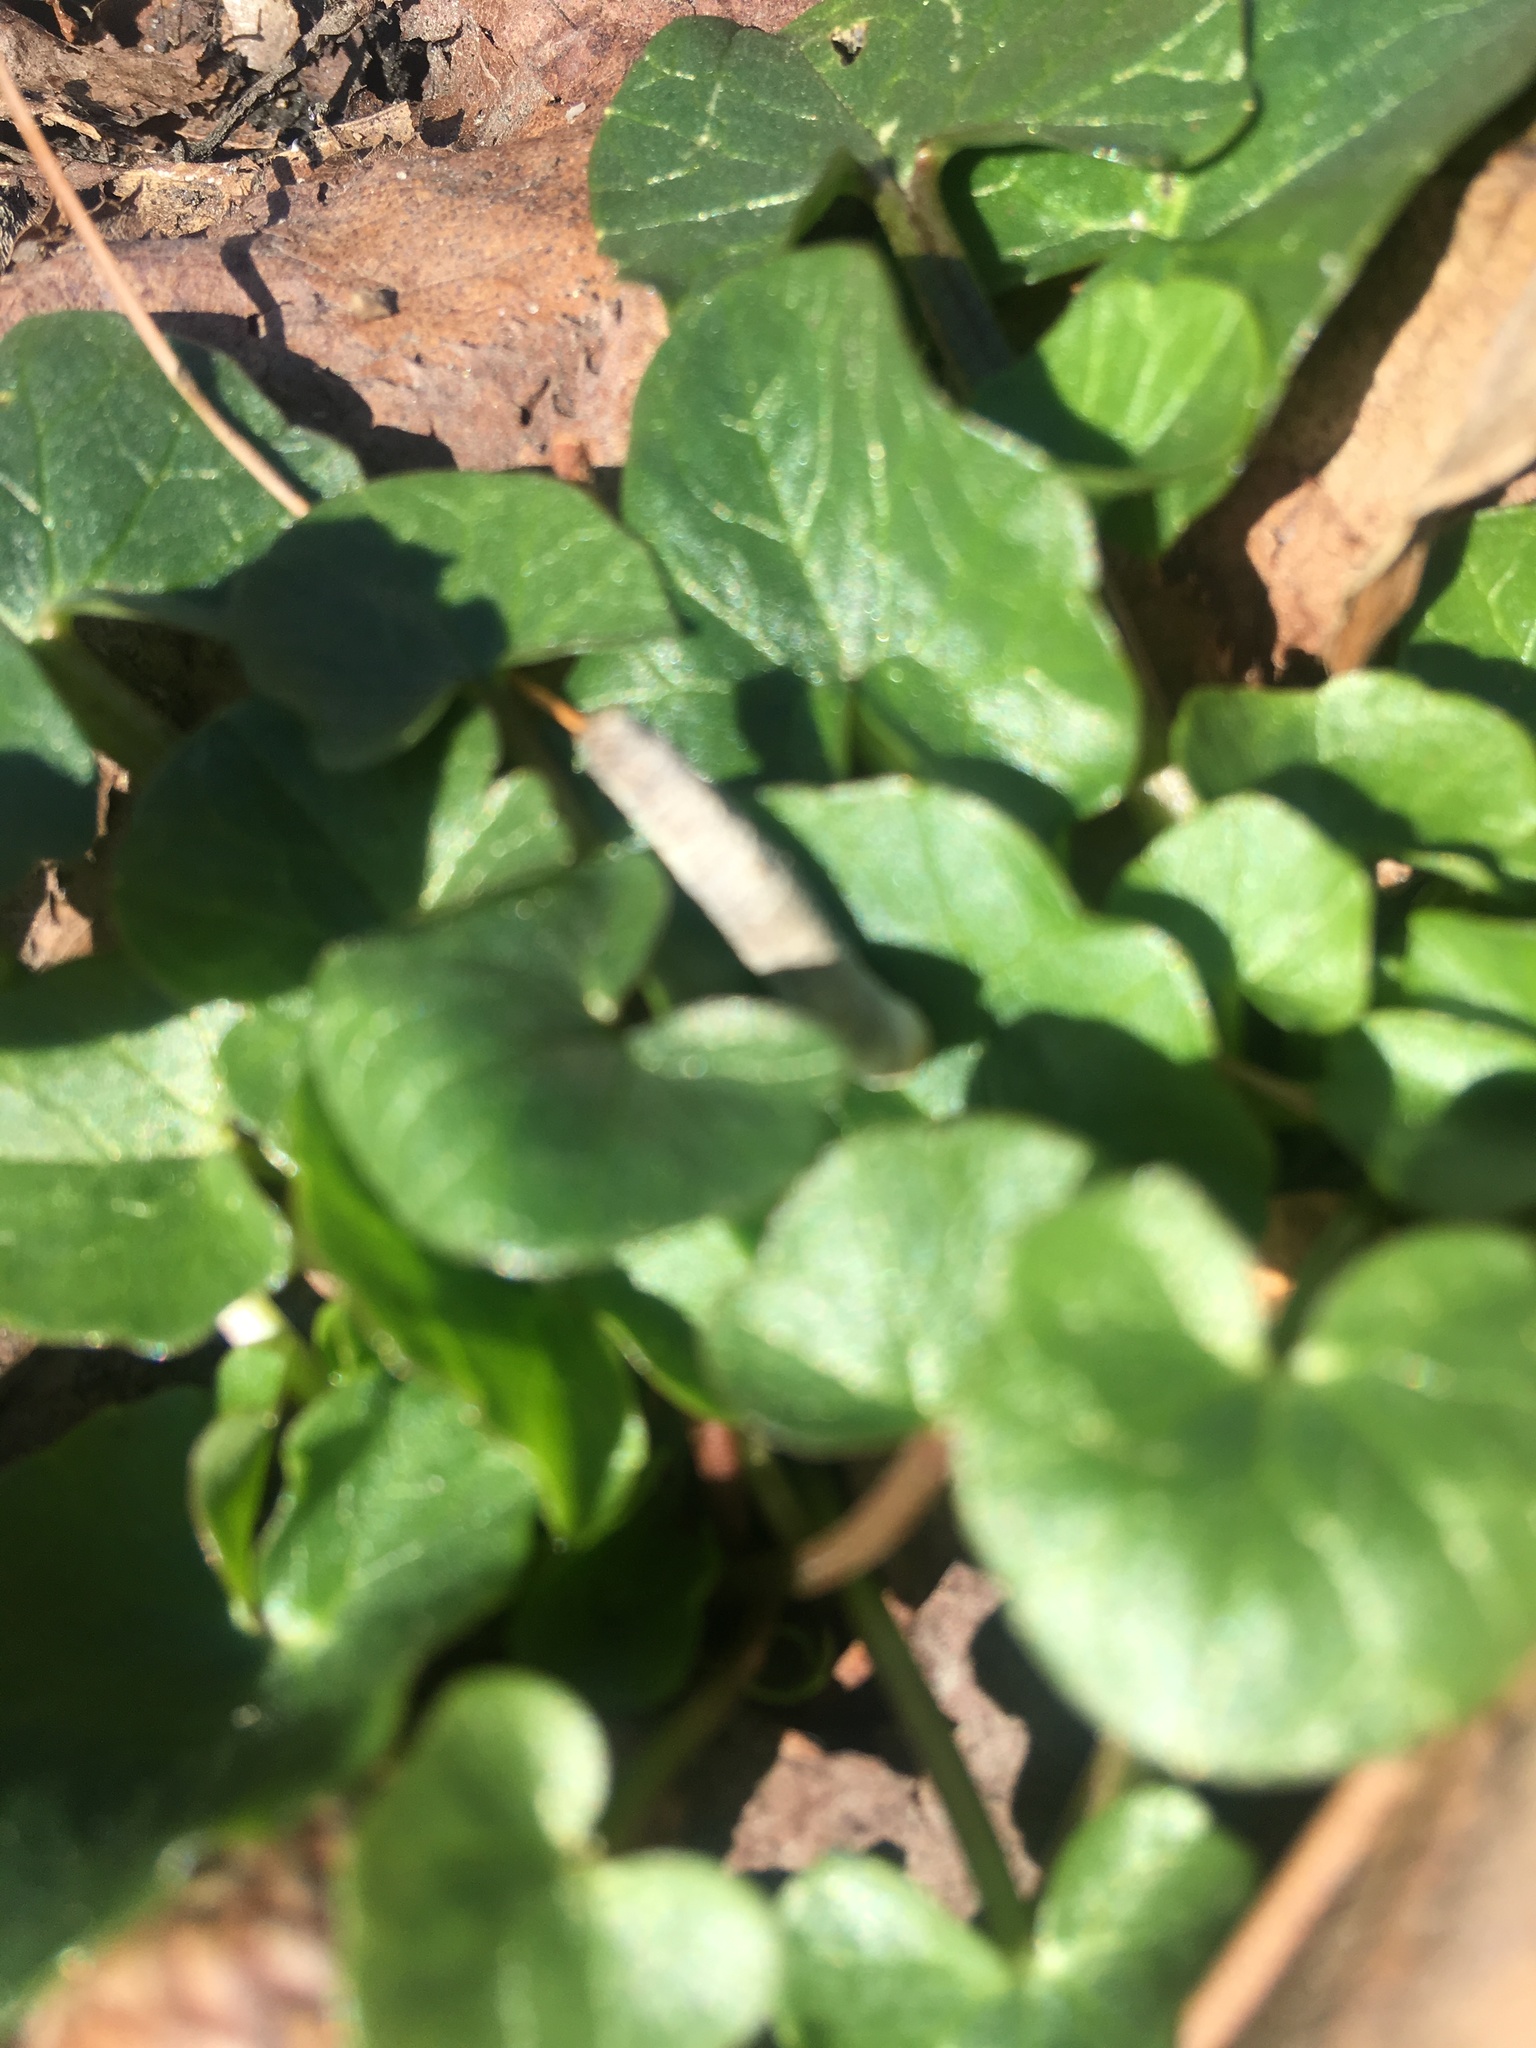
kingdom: Plantae
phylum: Tracheophyta
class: Magnoliopsida
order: Ranunculales
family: Ranunculaceae
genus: Ficaria
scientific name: Ficaria verna
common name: Lesser celandine
